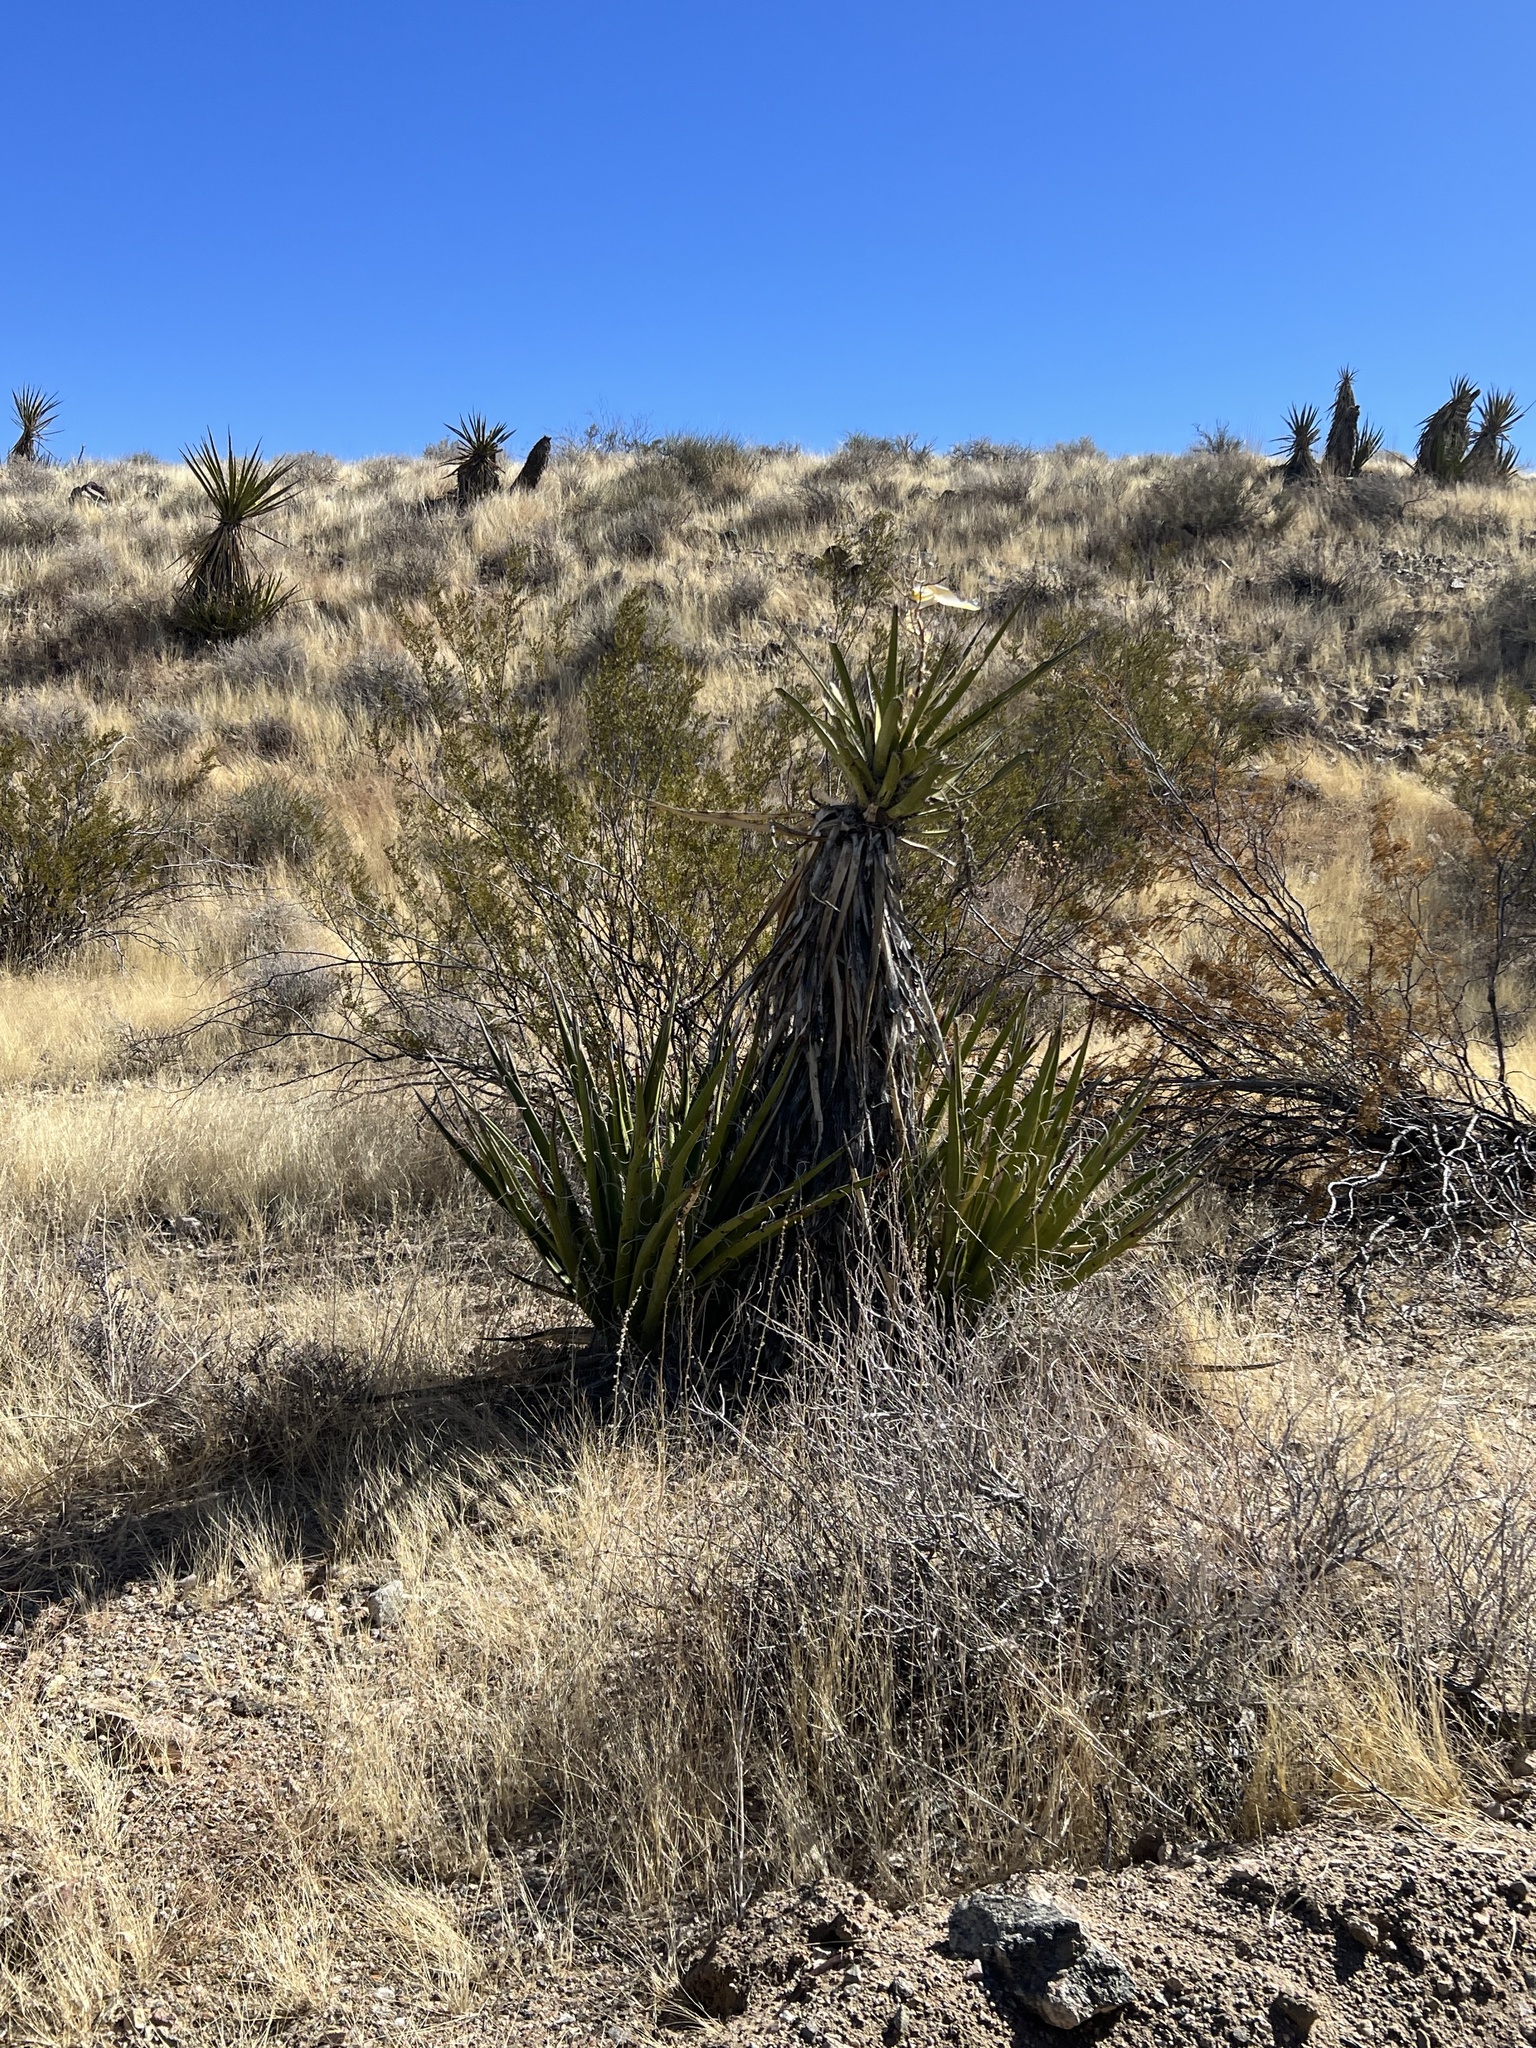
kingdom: Plantae
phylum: Tracheophyta
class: Liliopsida
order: Asparagales
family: Asparagaceae
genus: Yucca
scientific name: Yucca schidigera
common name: Mojave yucca
